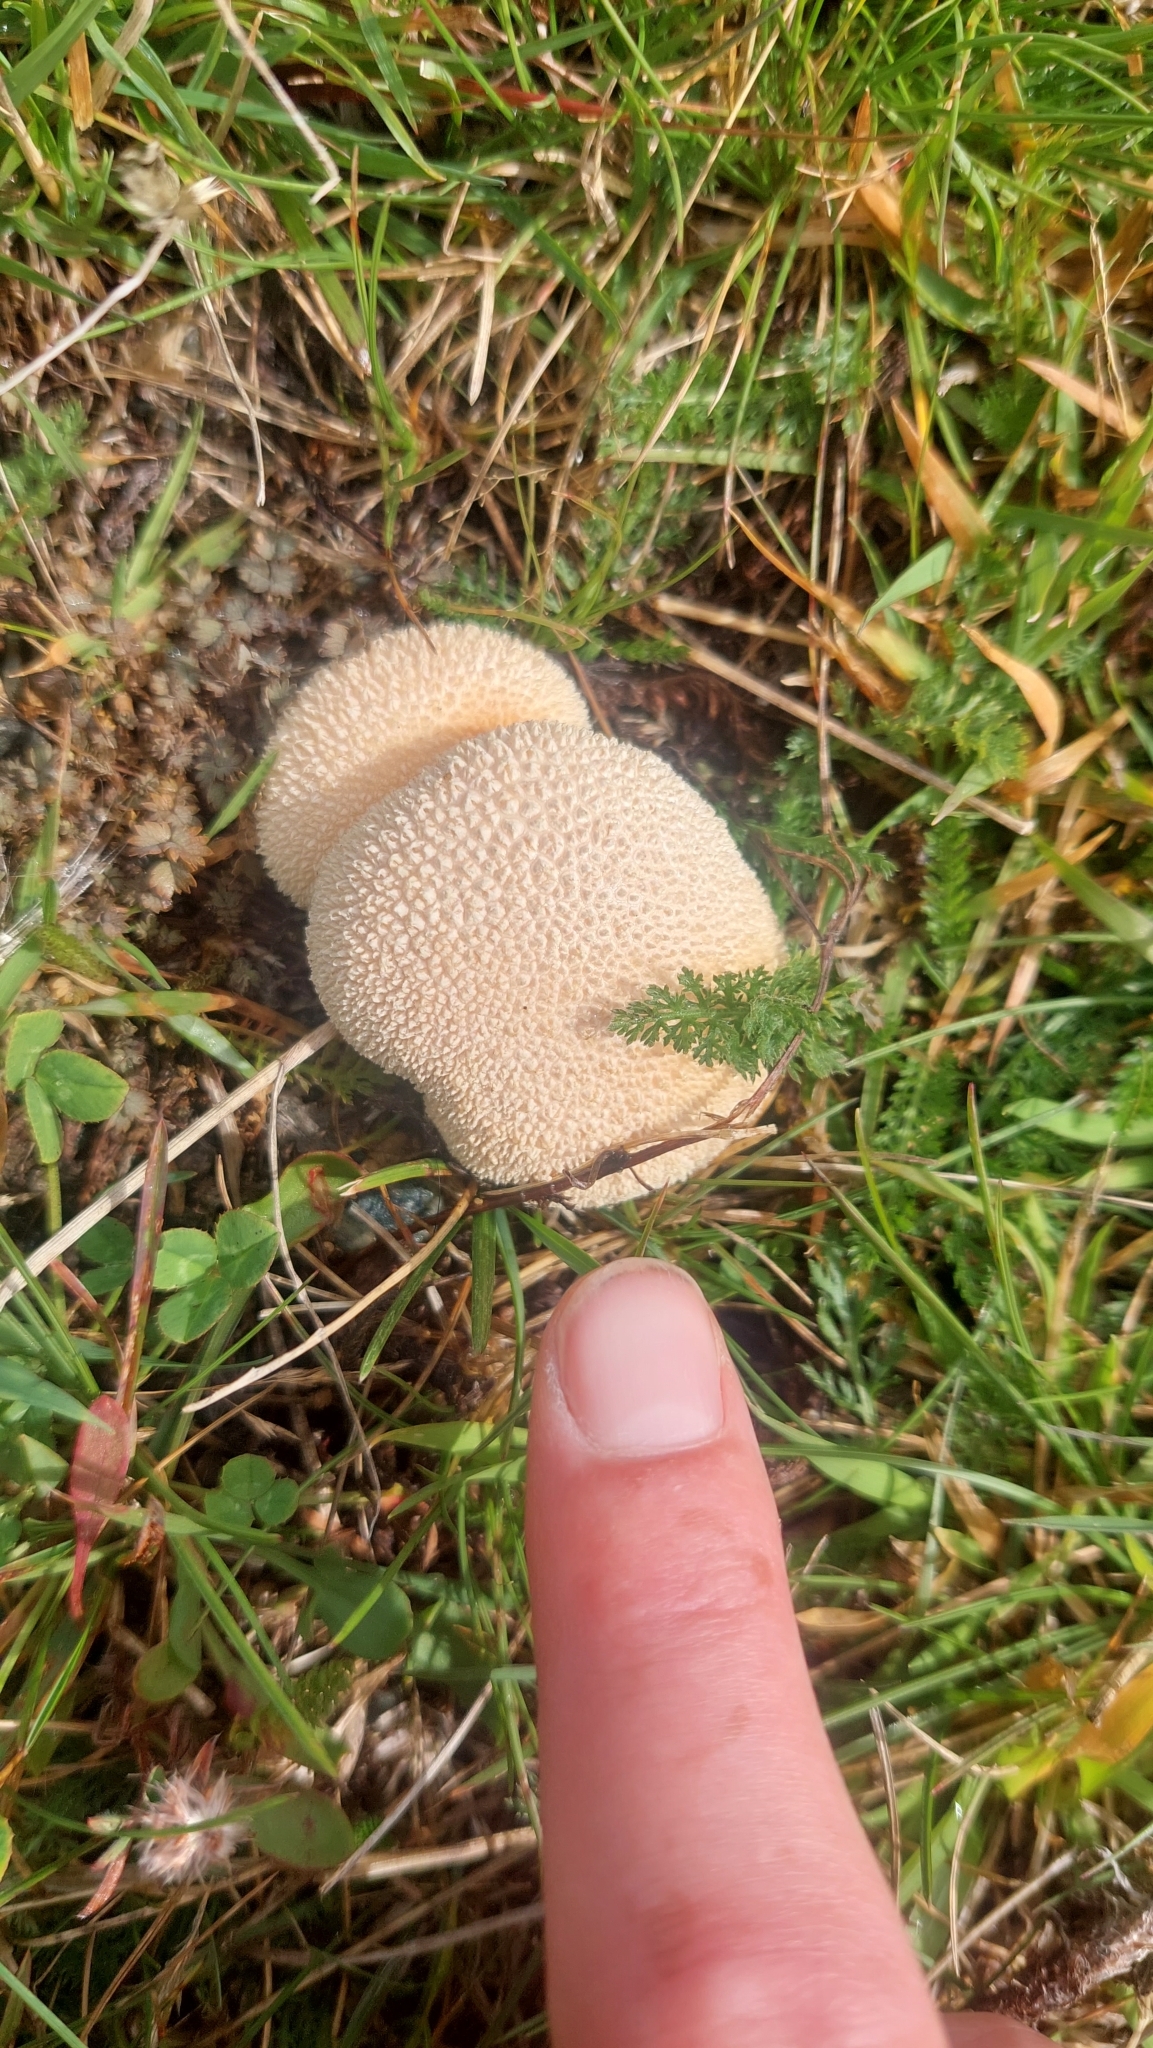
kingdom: Fungi
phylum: Basidiomycota
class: Agaricomycetes
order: Agaricales
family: Lycoperdaceae
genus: Lycoperdon
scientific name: Lycoperdon pratense
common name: Meadow puffball
